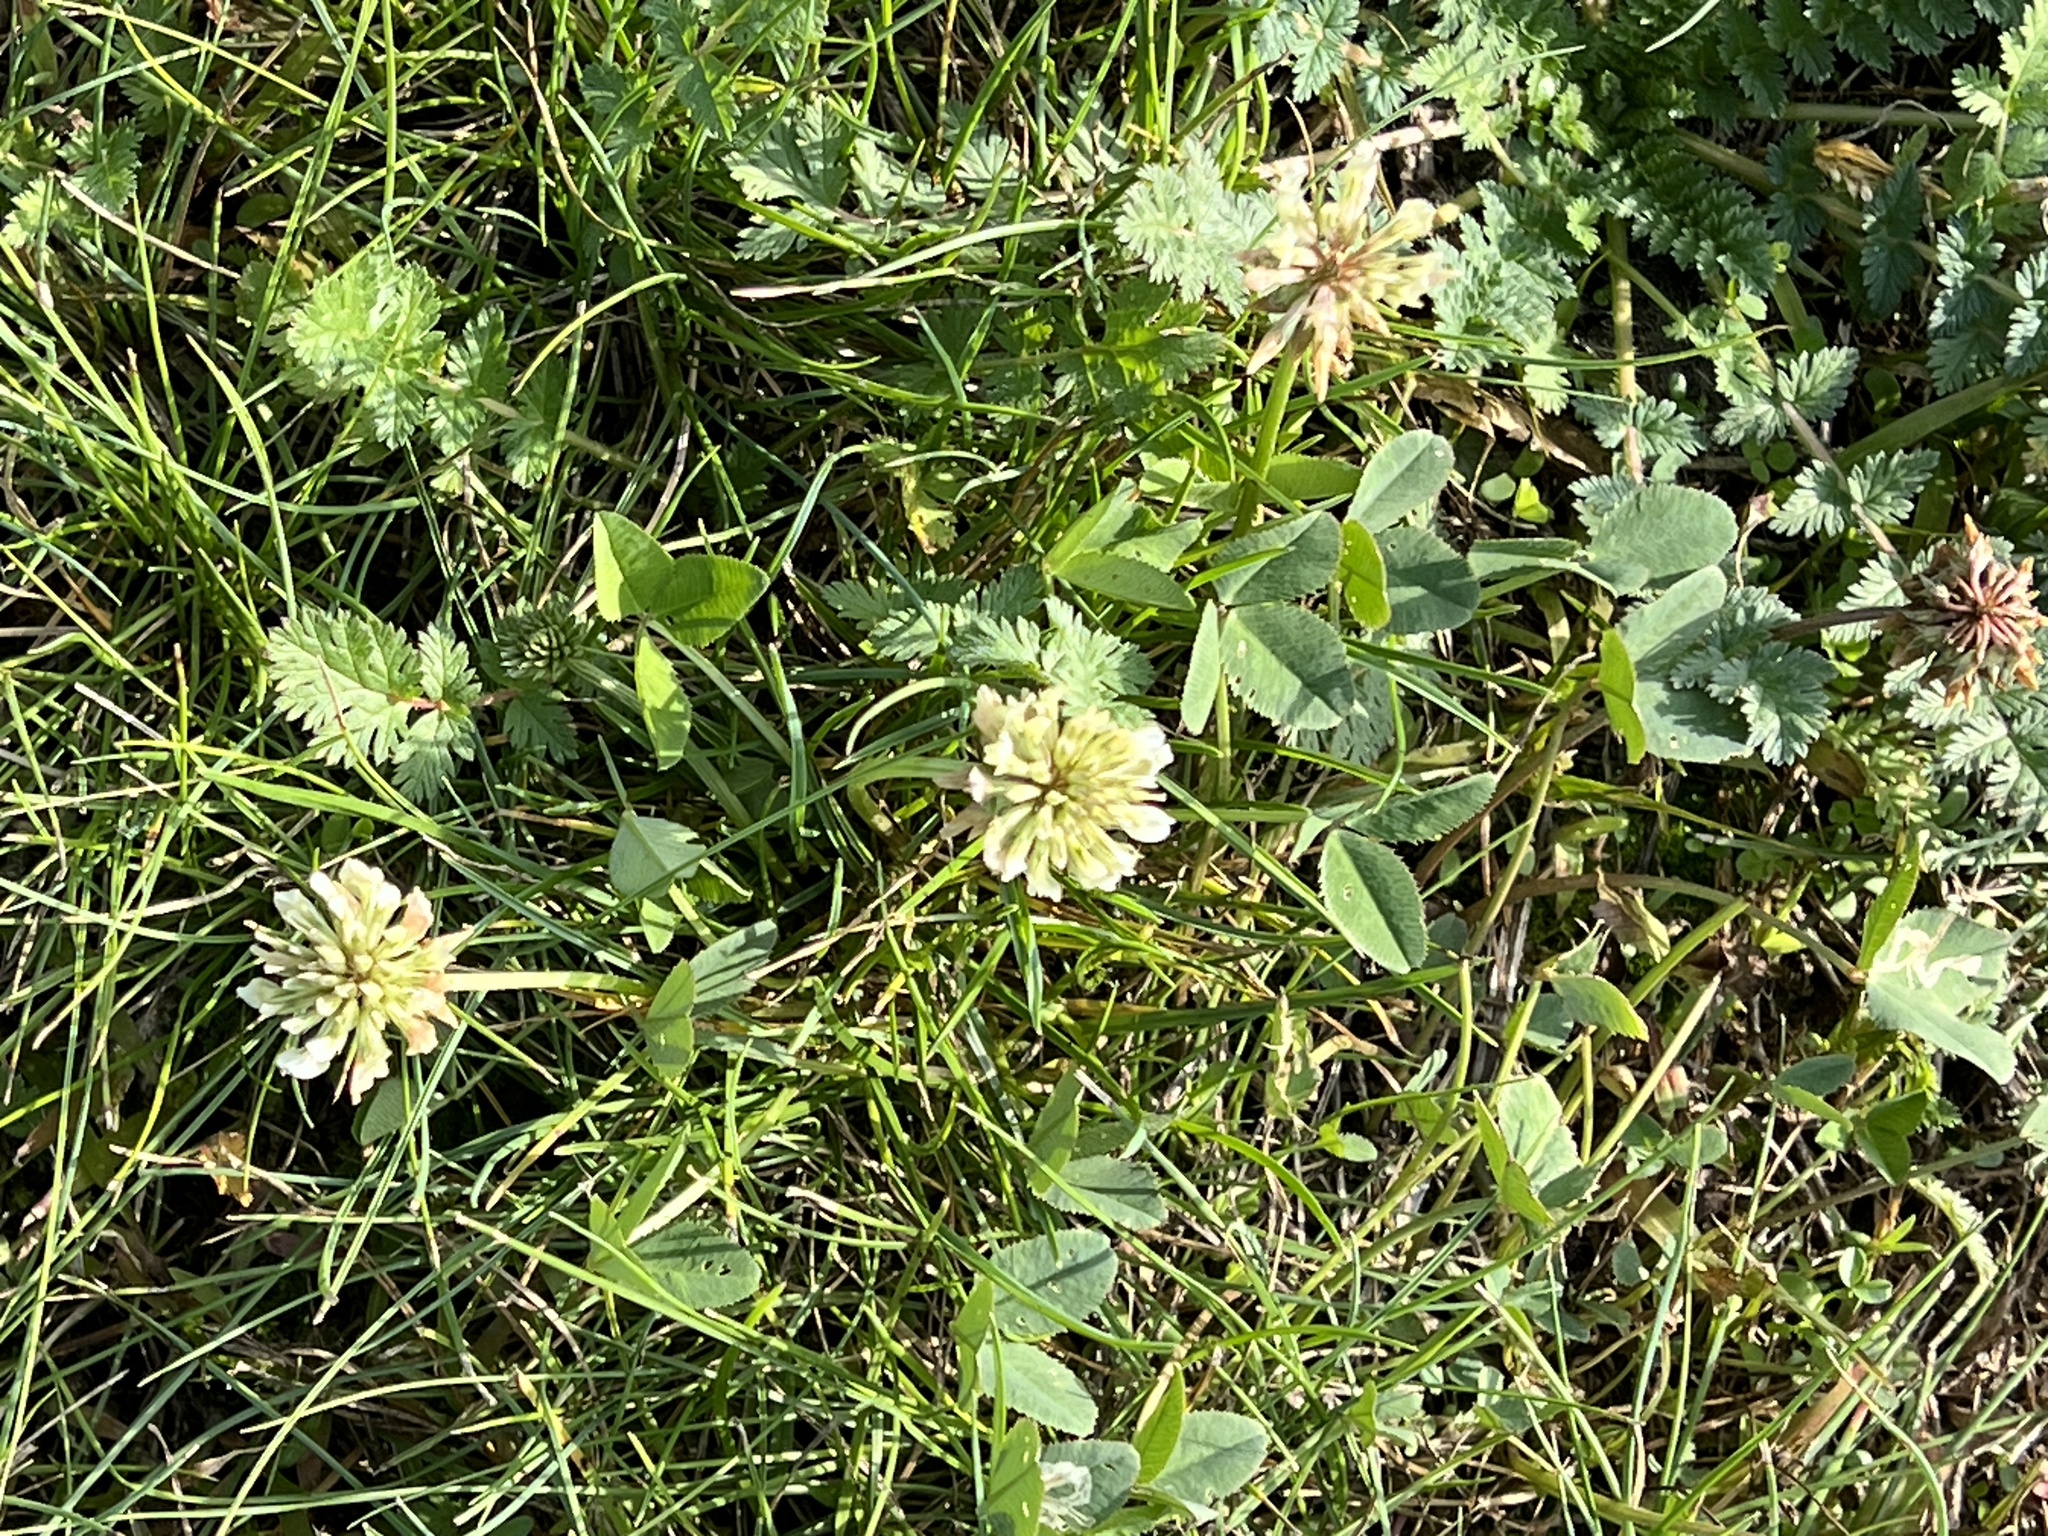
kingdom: Plantae
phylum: Tracheophyta
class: Magnoliopsida
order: Fabales
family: Fabaceae
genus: Trifolium
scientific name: Trifolium repens
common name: White clover
